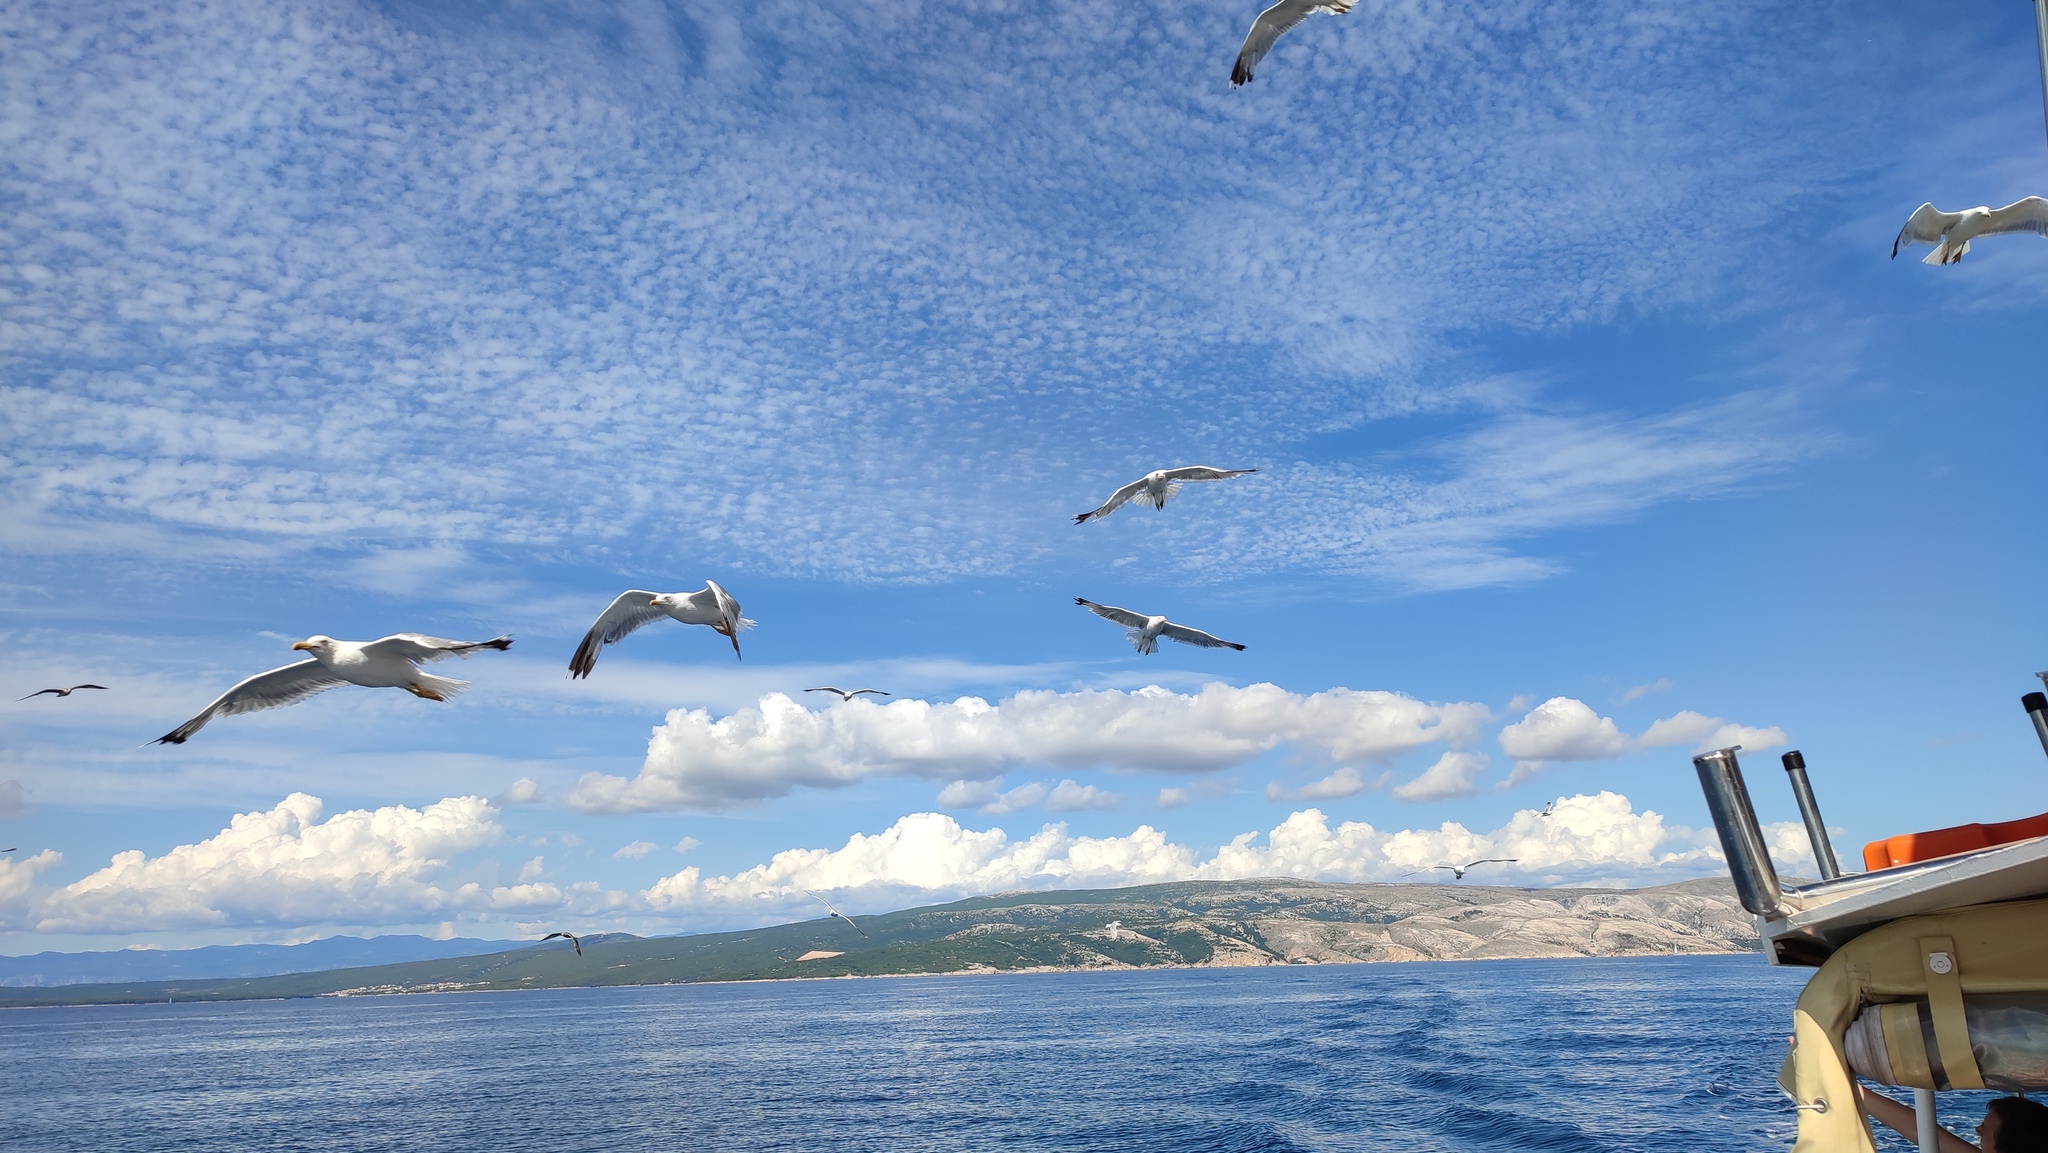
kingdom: Animalia
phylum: Chordata
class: Aves
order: Charadriiformes
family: Laridae
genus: Larus
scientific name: Larus michahellis
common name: Yellow-legged gull
